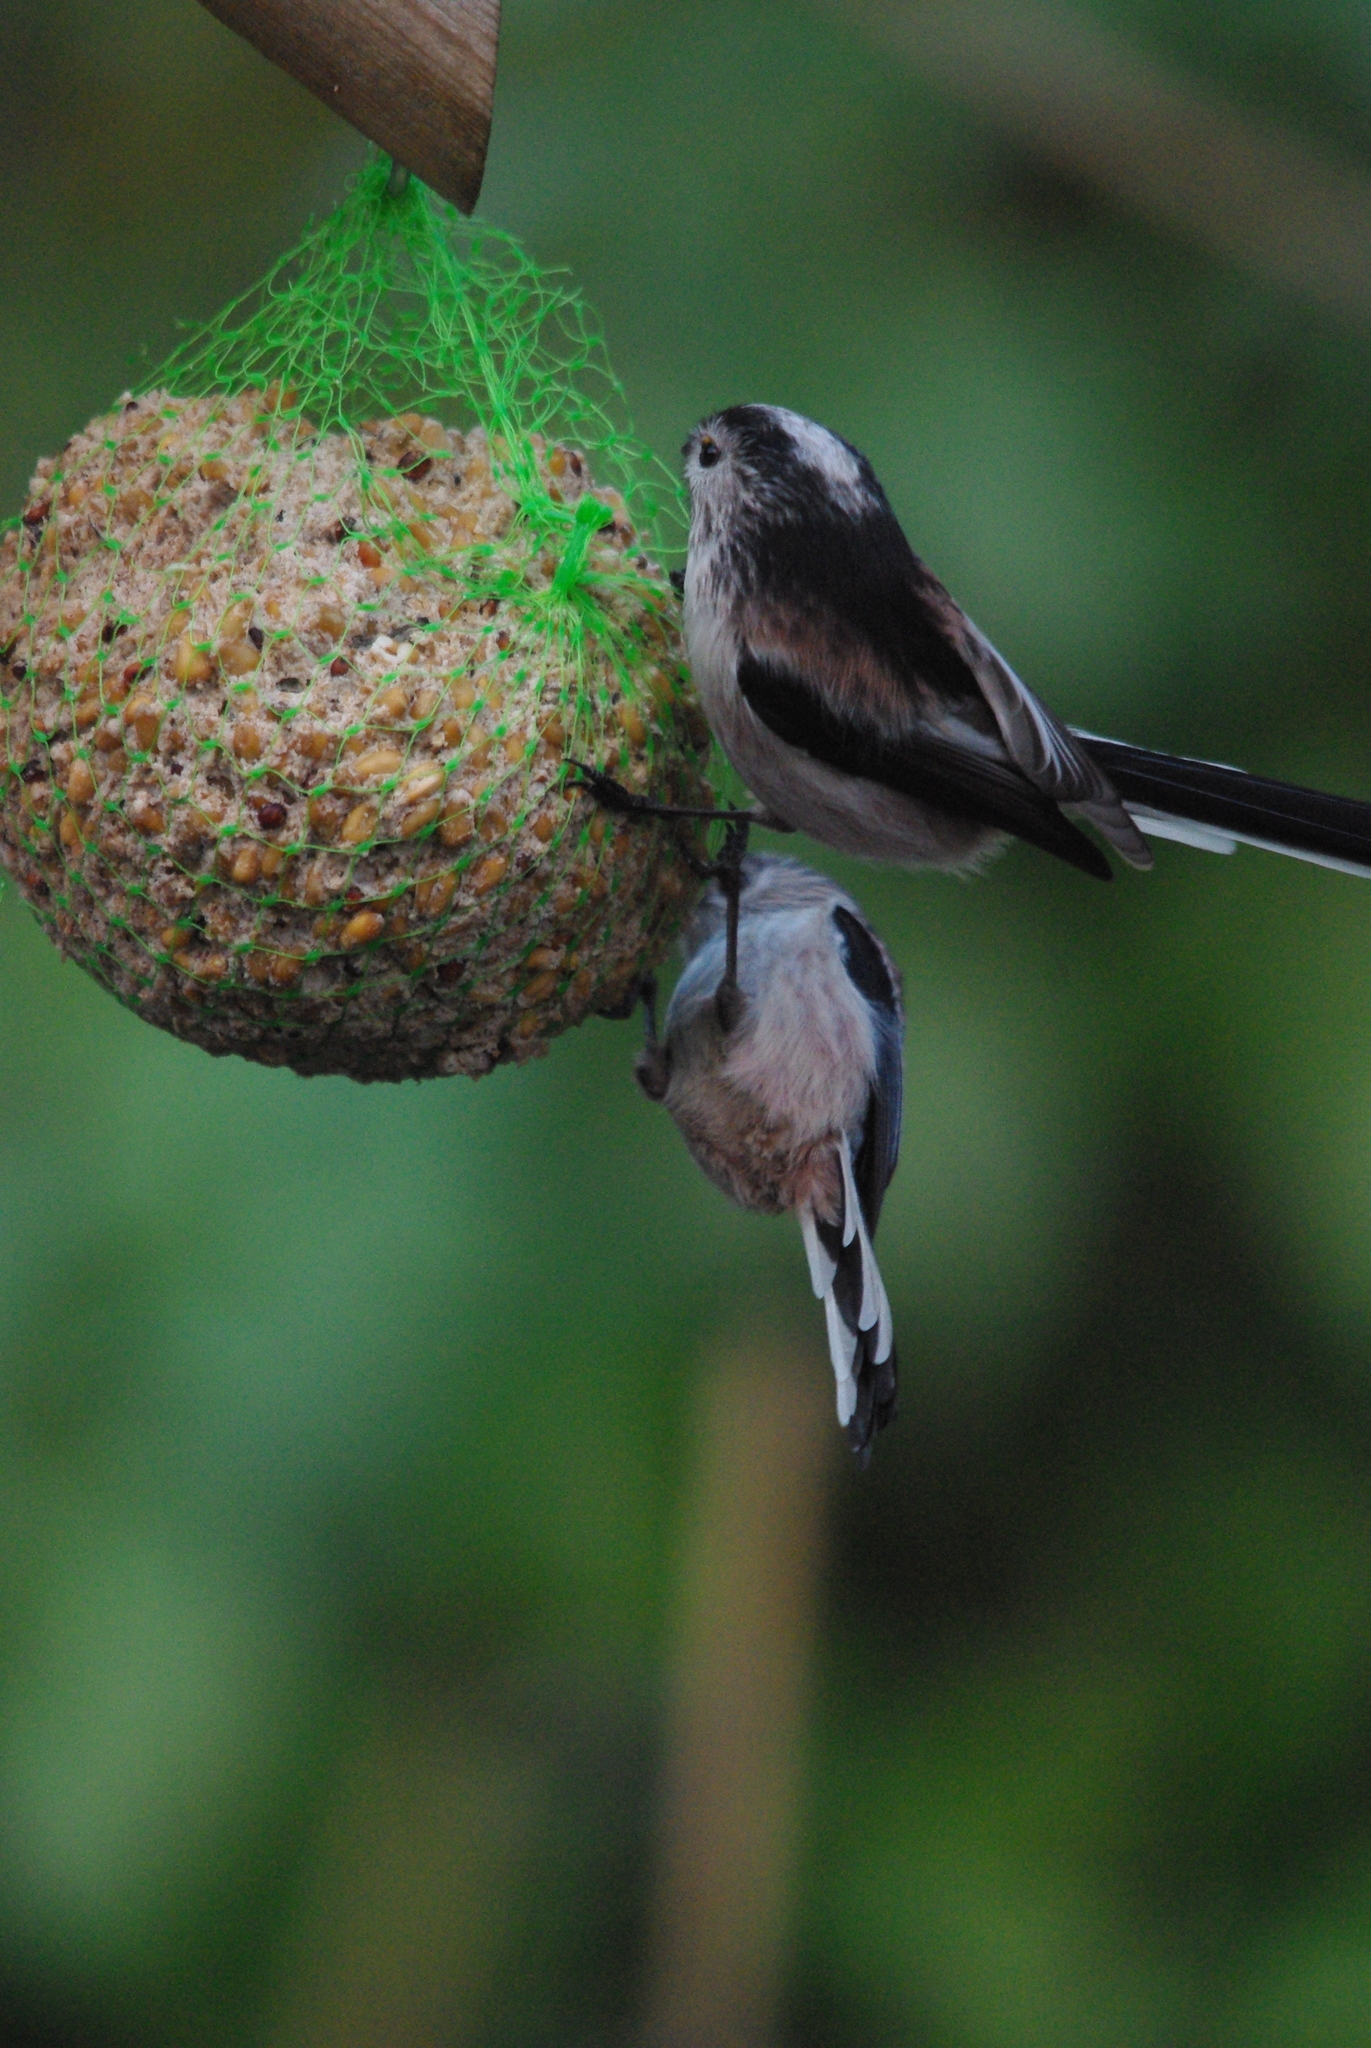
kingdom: Animalia
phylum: Chordata
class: Aves
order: Passeriformes
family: Aegithalidae
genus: Aegithalos
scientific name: Aegithalos caudatus
